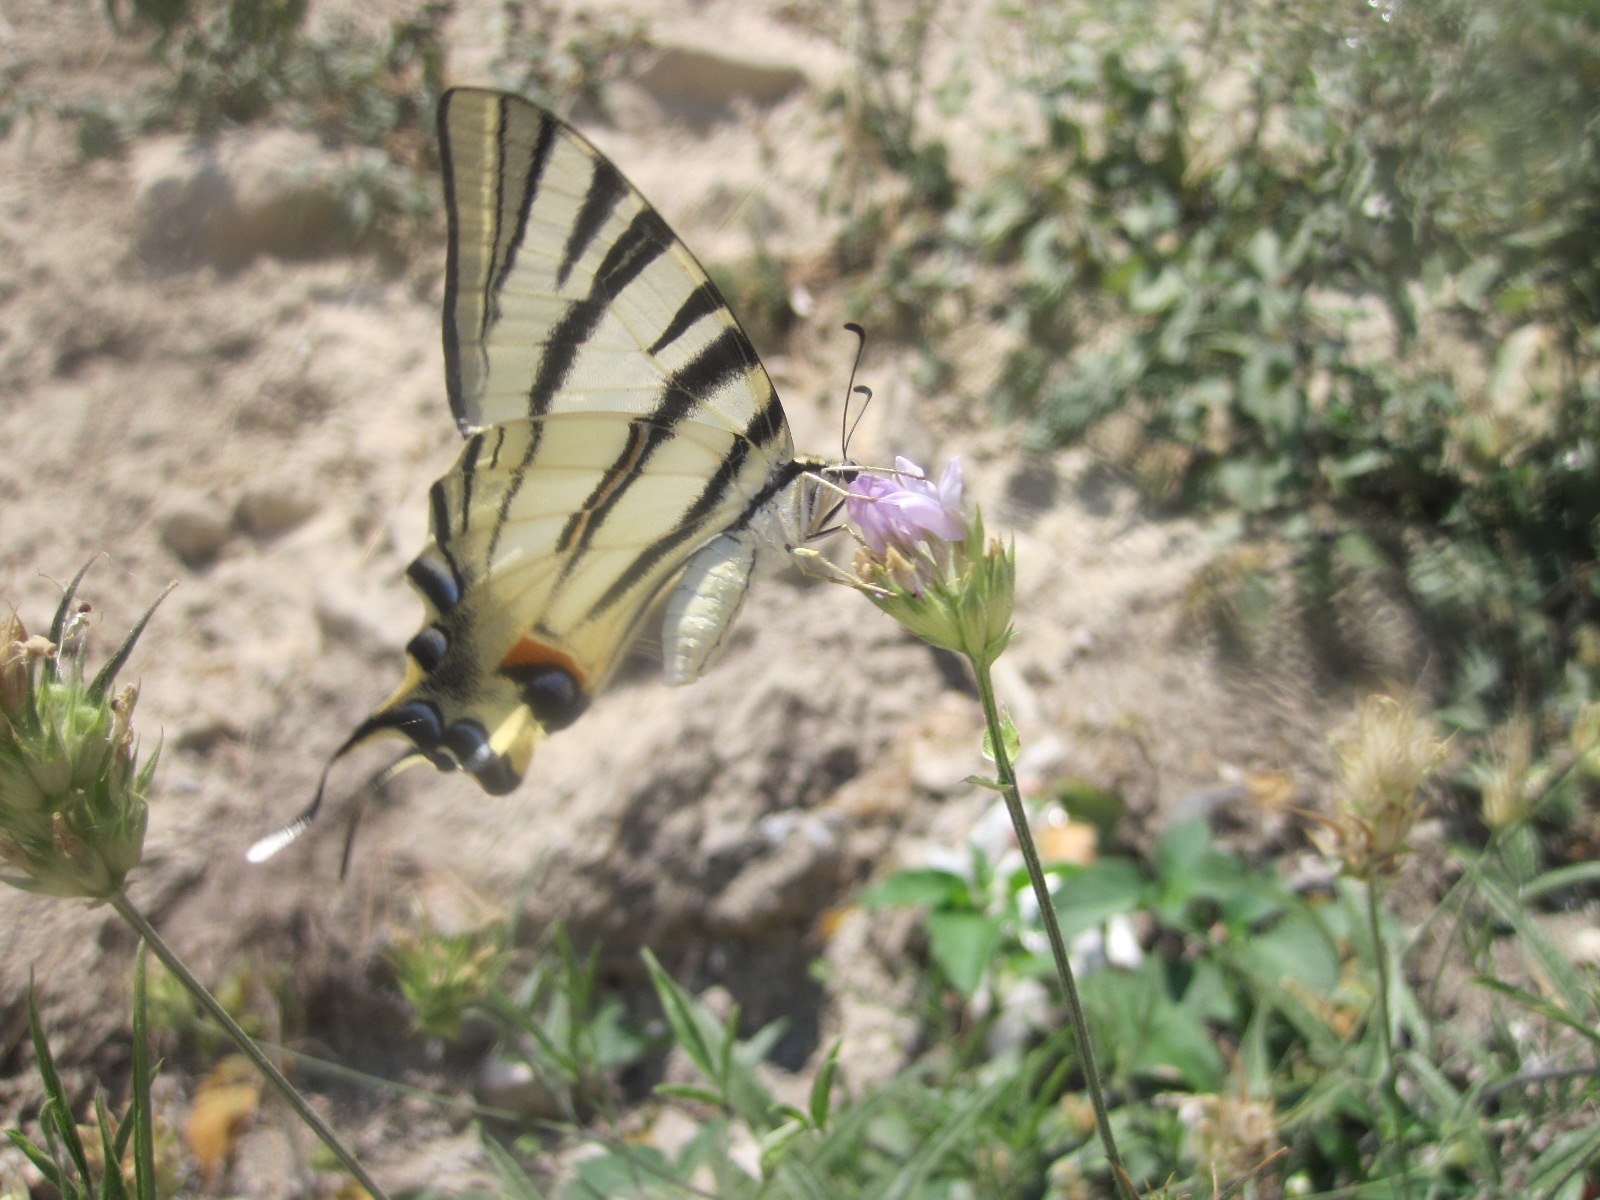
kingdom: Animalia
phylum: Arthropoda
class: Insecta
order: Lepidoptera
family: Papilionidae
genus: Iphiclides
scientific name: Iphiclides podalirius
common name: Scarce swallowtail
